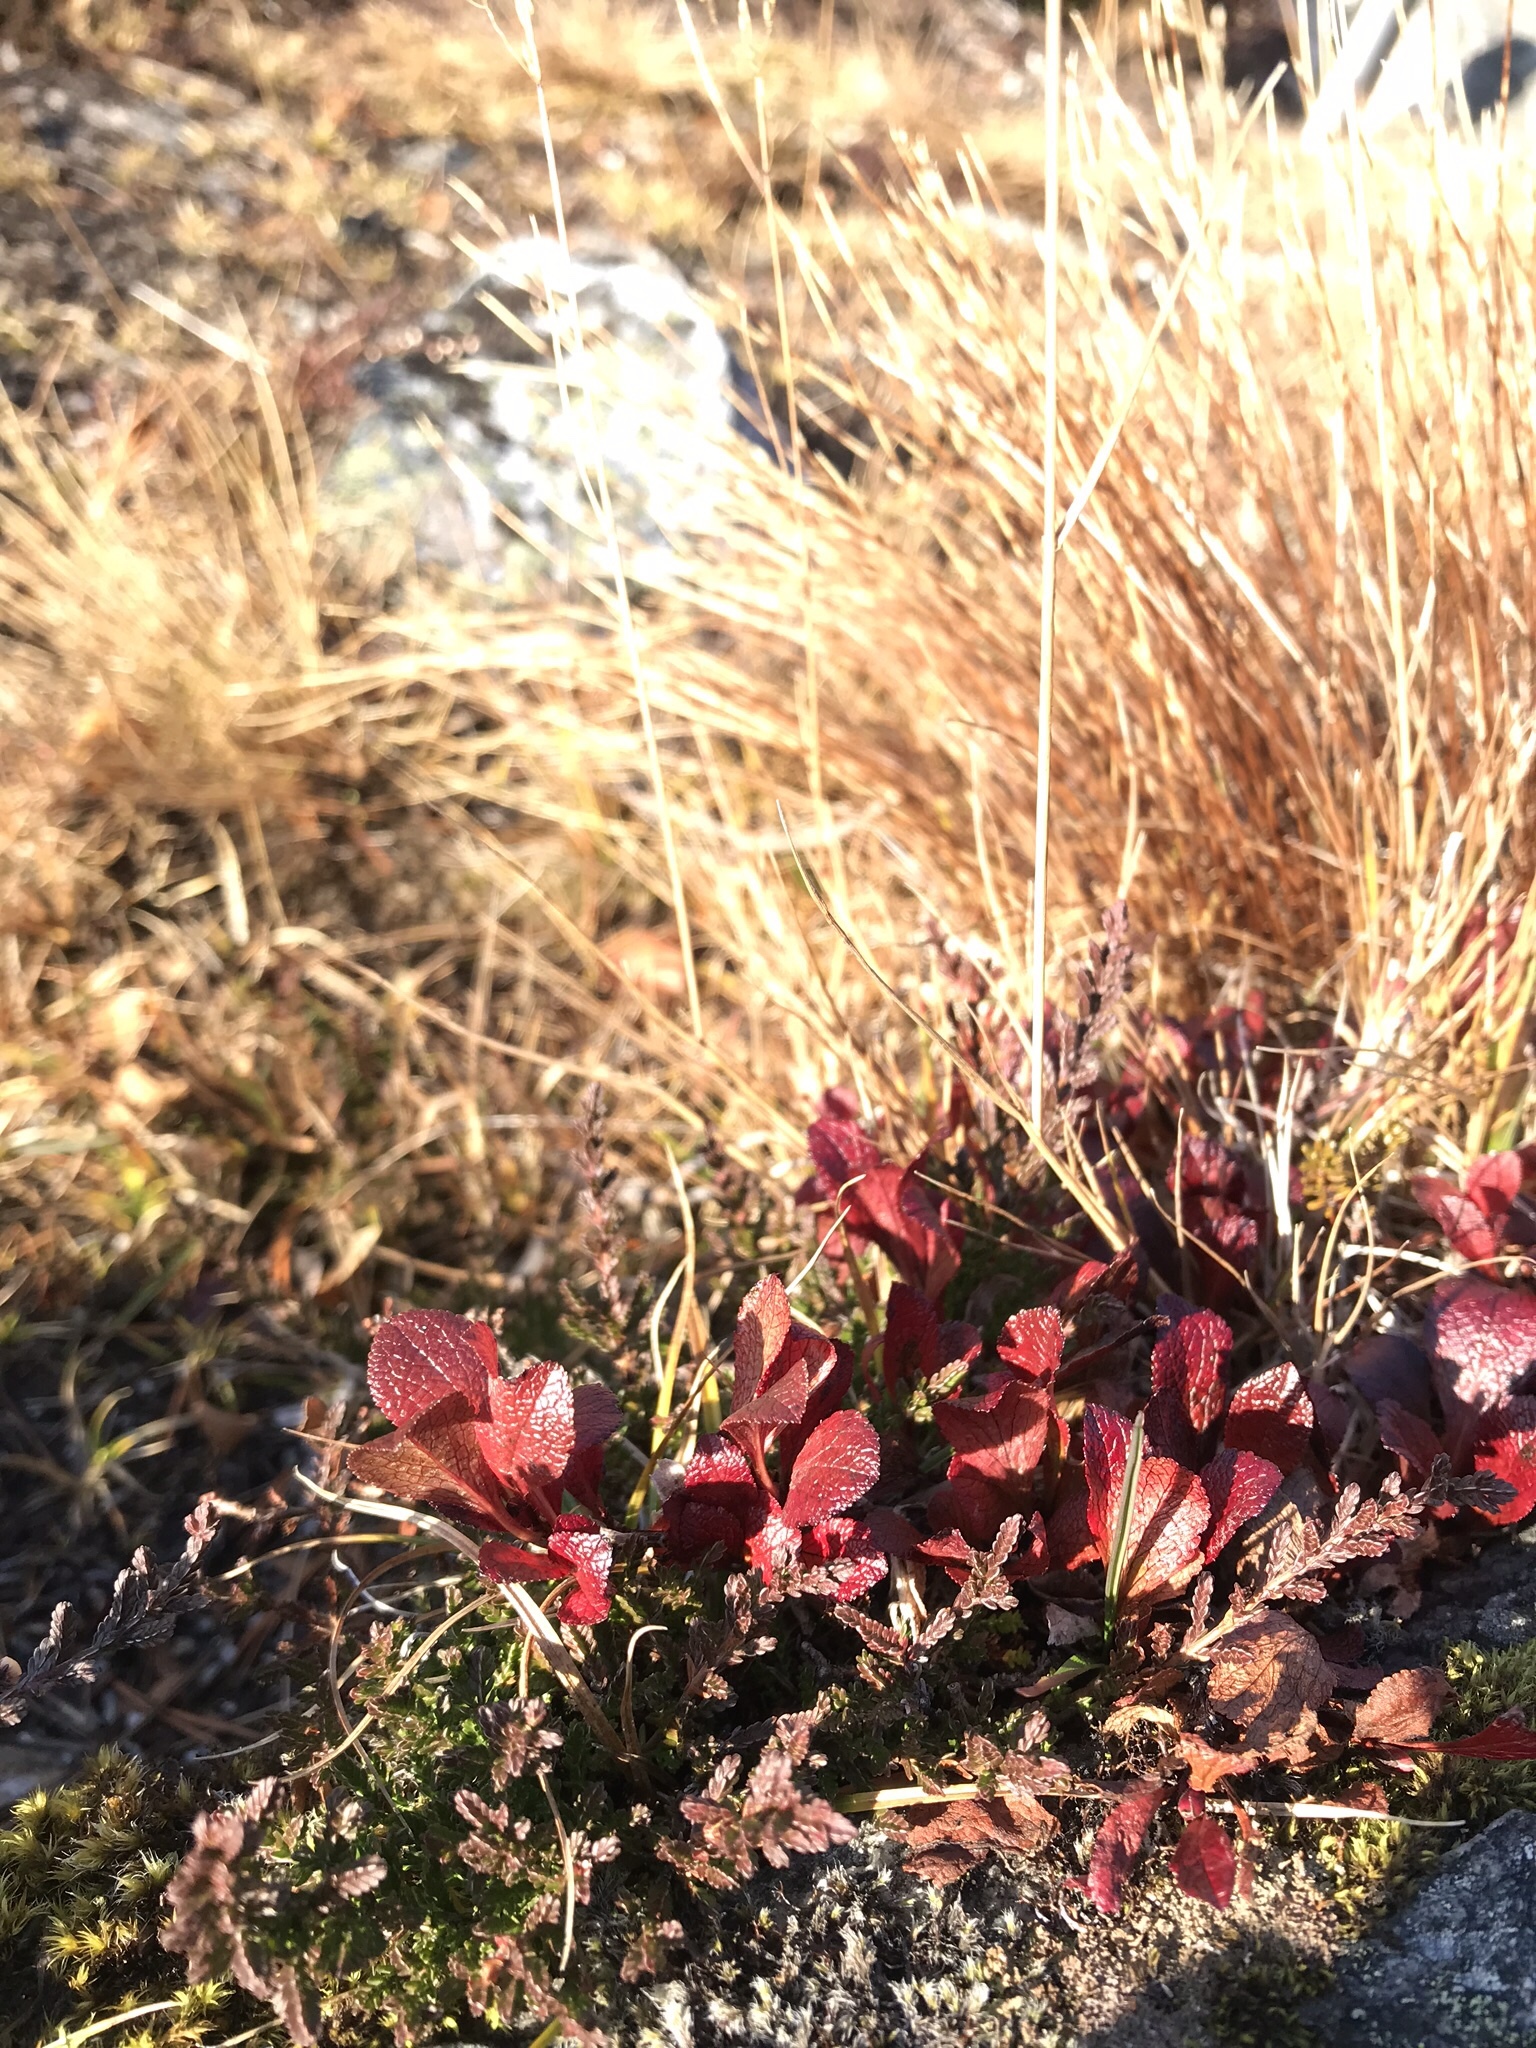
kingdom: Plantae
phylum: Tracheophyta
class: Magnoliopsida
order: Ericales
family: Ericaceae
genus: Arctostaphylos
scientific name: Arctostaphylos alpinus
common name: Alpine bearberry
